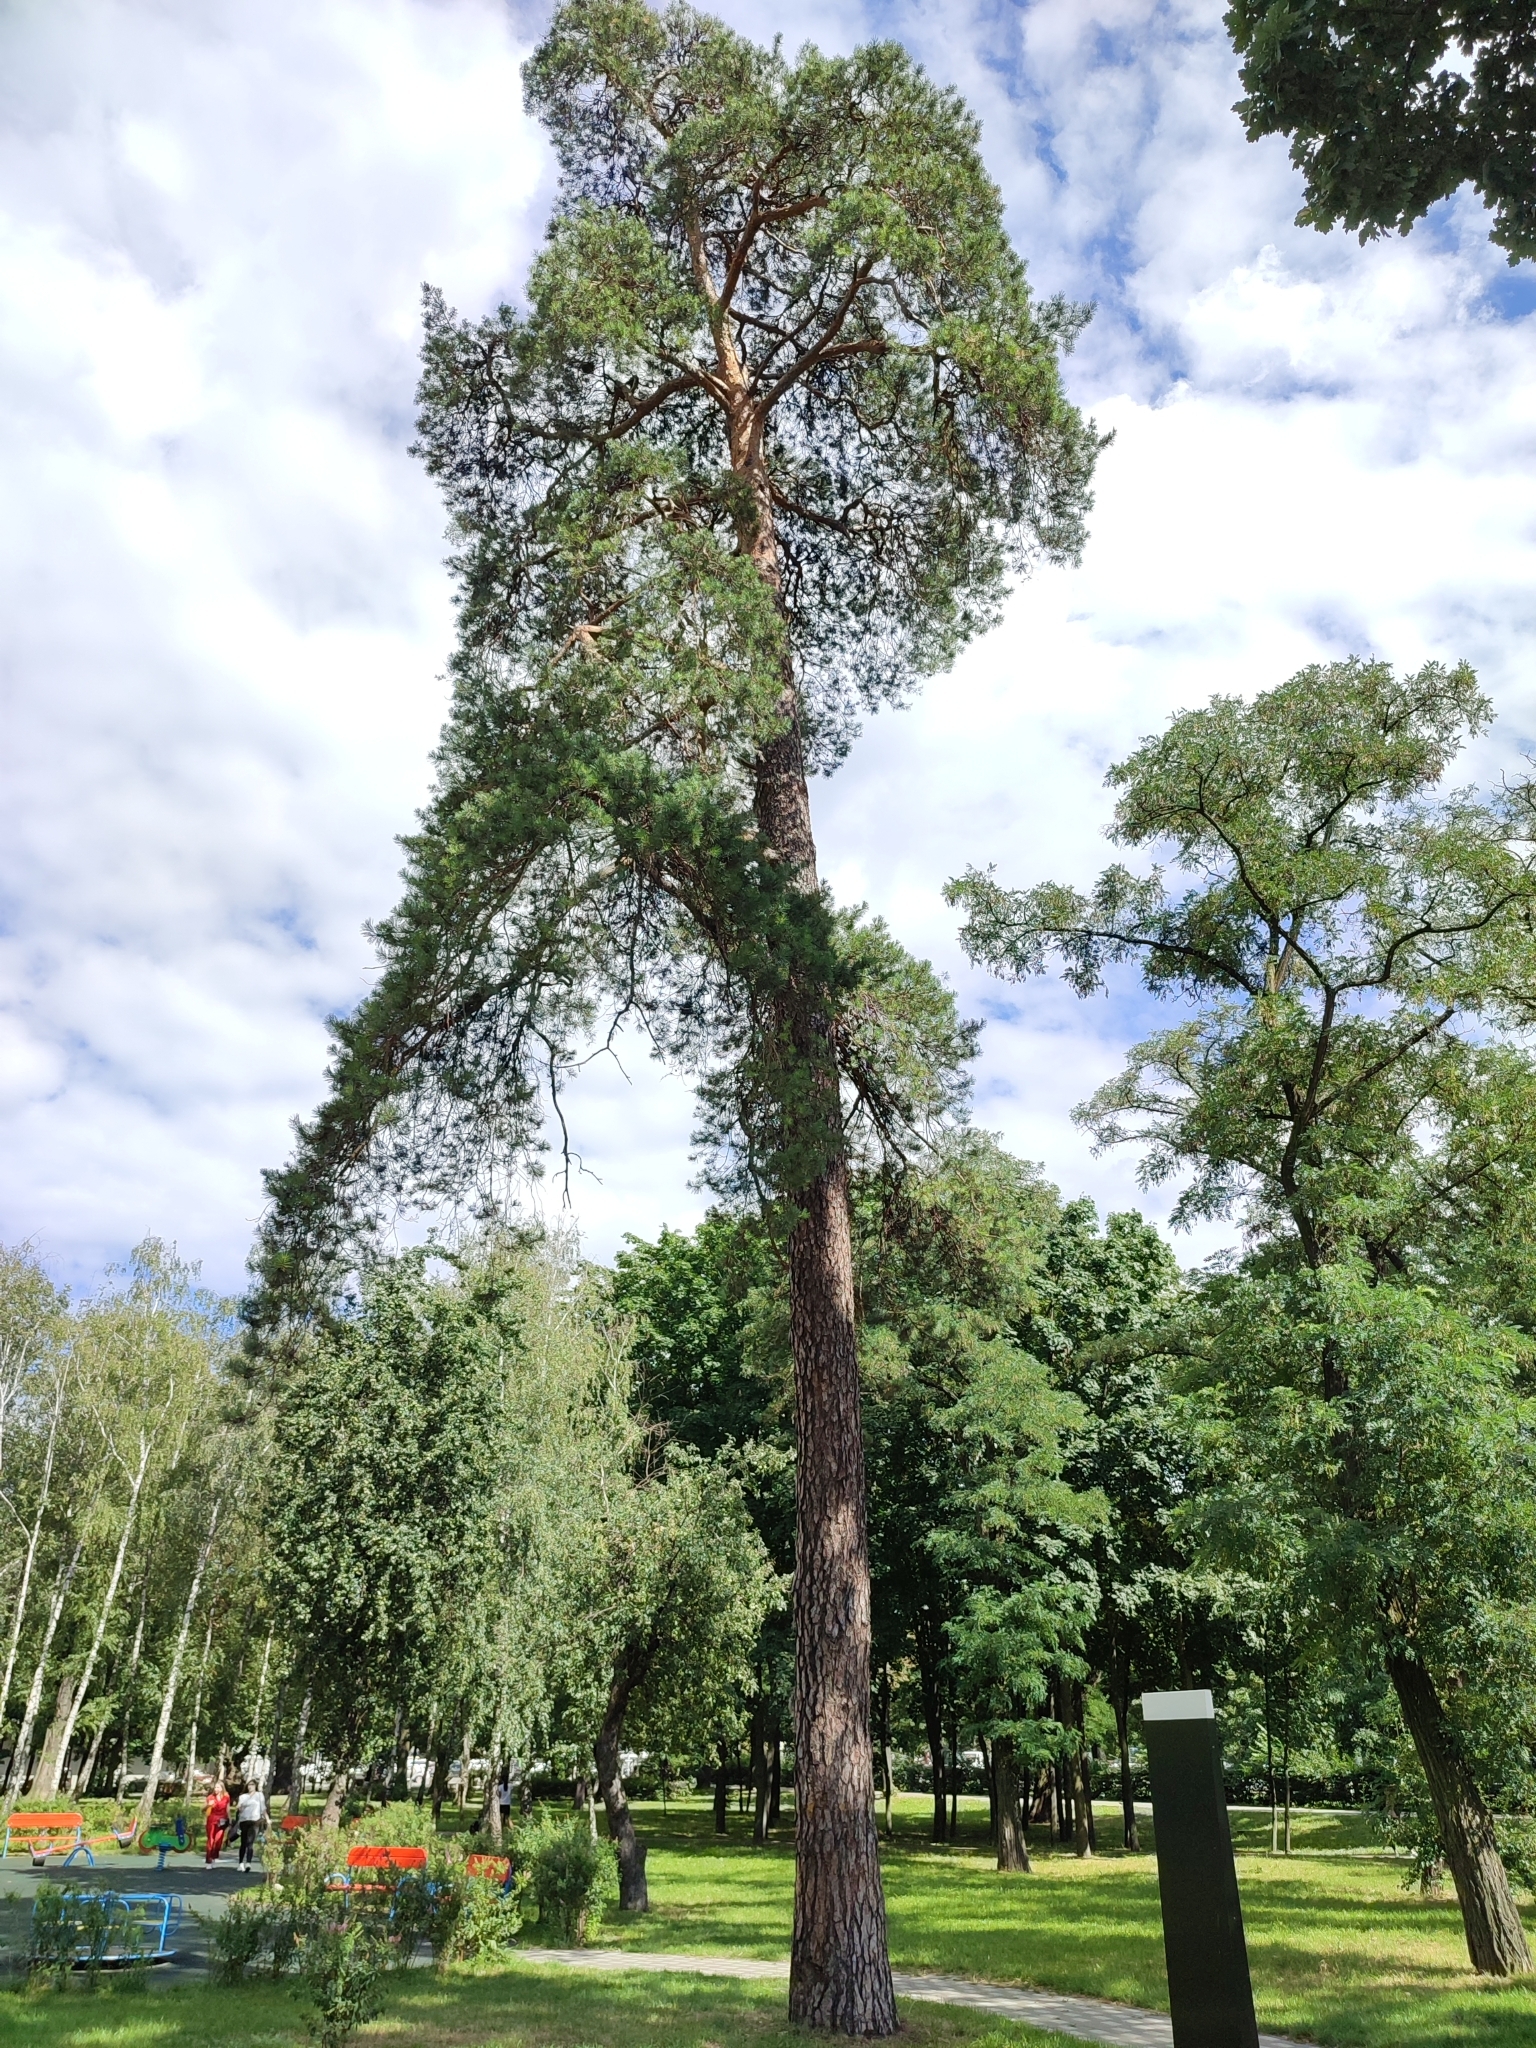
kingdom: Plantae
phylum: Tracheophyta
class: Pinopsida
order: Pinales
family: Pinaceae
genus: Pinus
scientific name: Pinus sylvestris
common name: Scots pine
